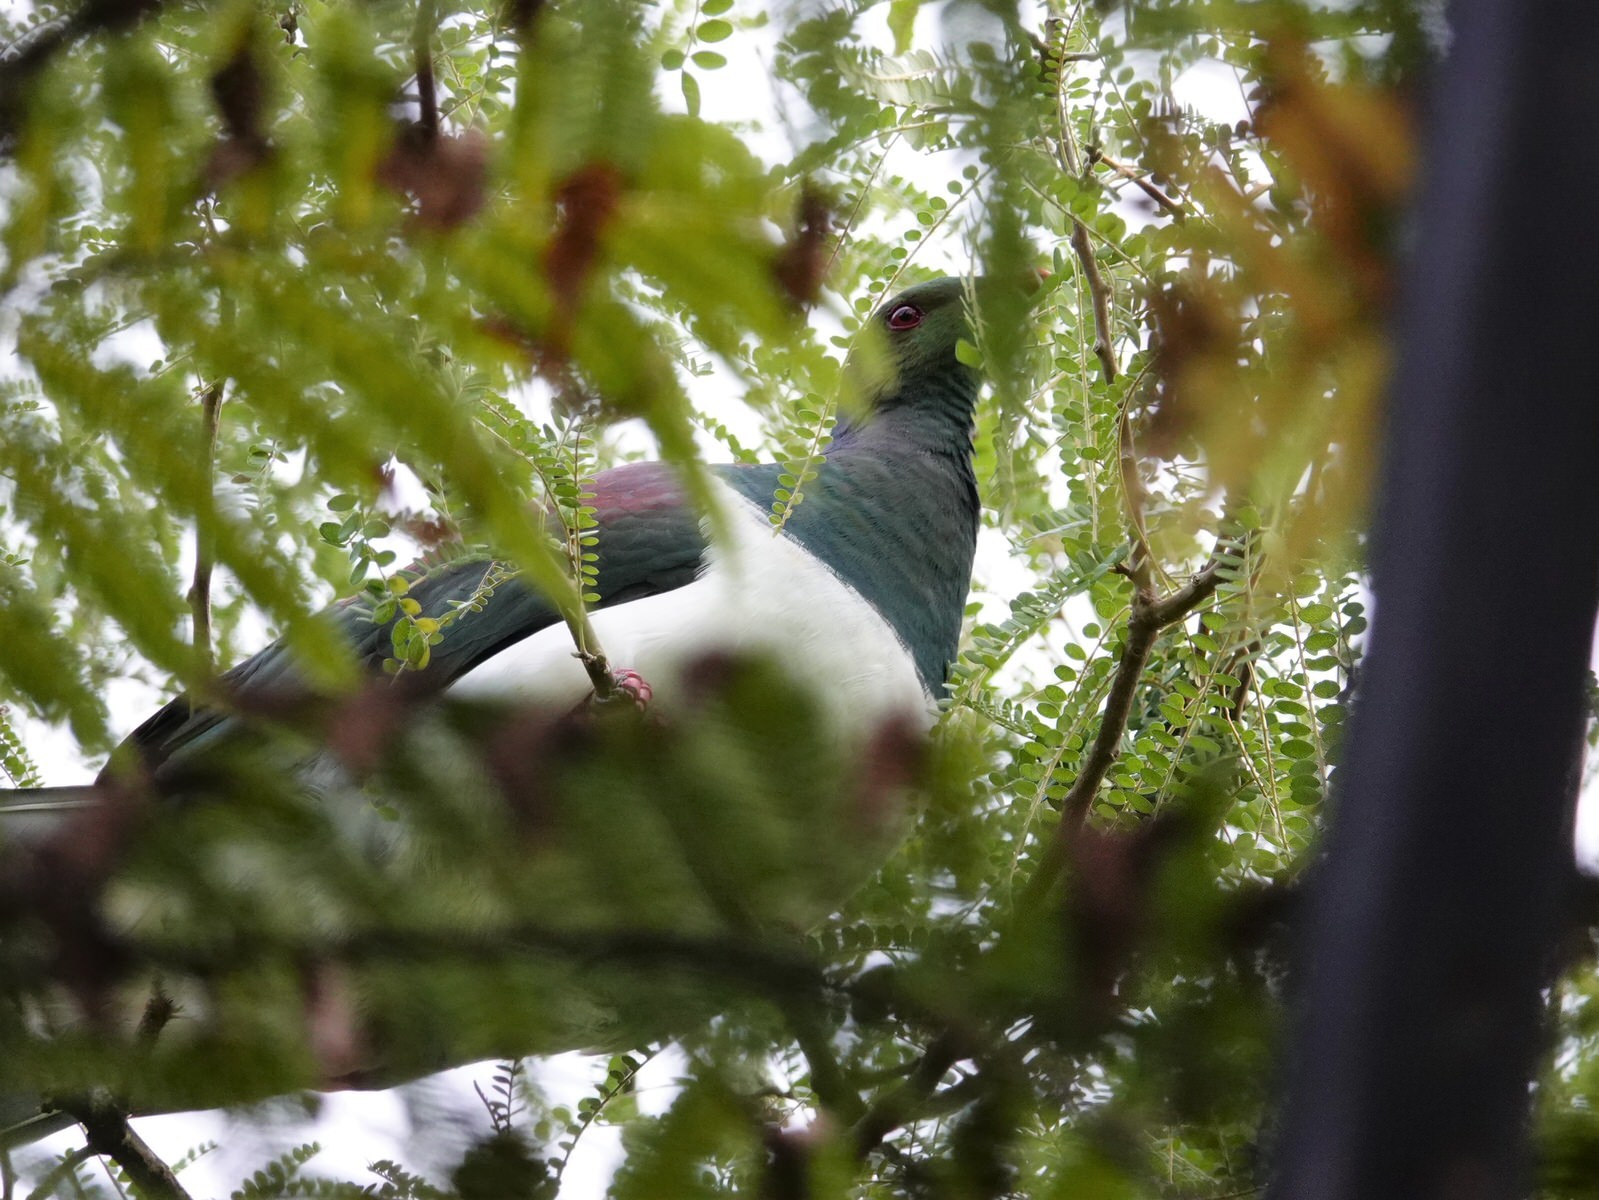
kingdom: Animalia
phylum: Chordata
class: Aves
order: Columbiformes
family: Columbidae
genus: Hemiphaga
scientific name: Hemiphaga novaeseelandiae
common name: New zealand pigeon
